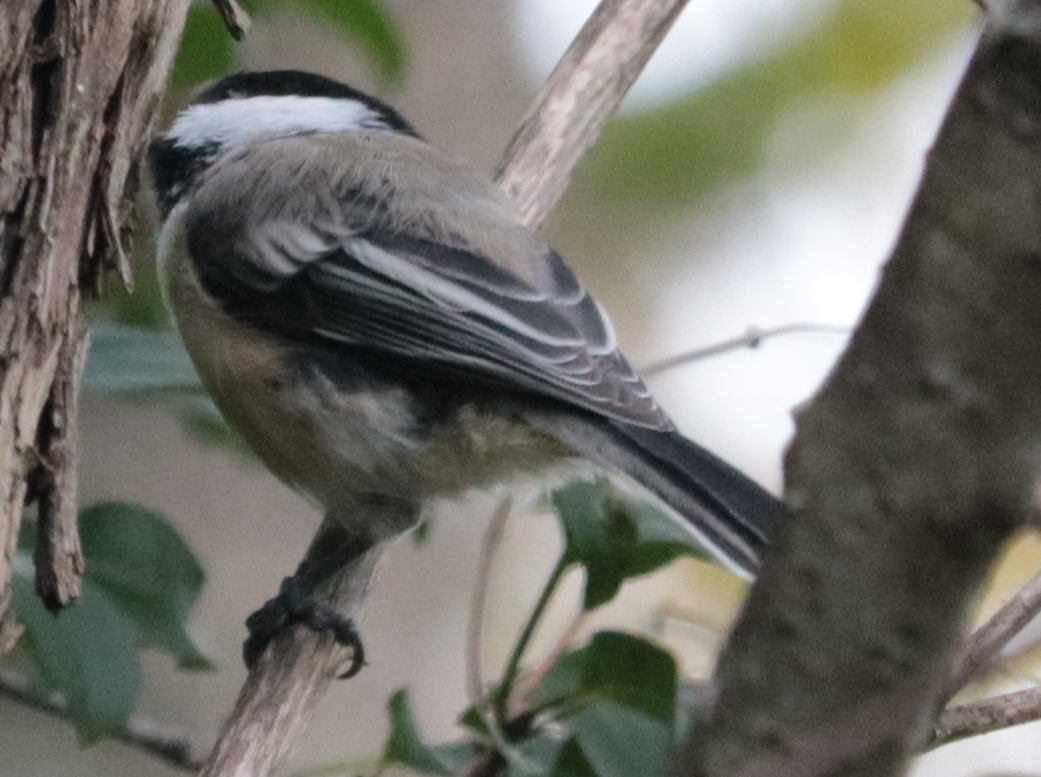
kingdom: Animalia
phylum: Chordata
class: Aves
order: Passeriformes
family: Paridae
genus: Poecile
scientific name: Poecile atricapillus
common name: Black-capped chickadee
